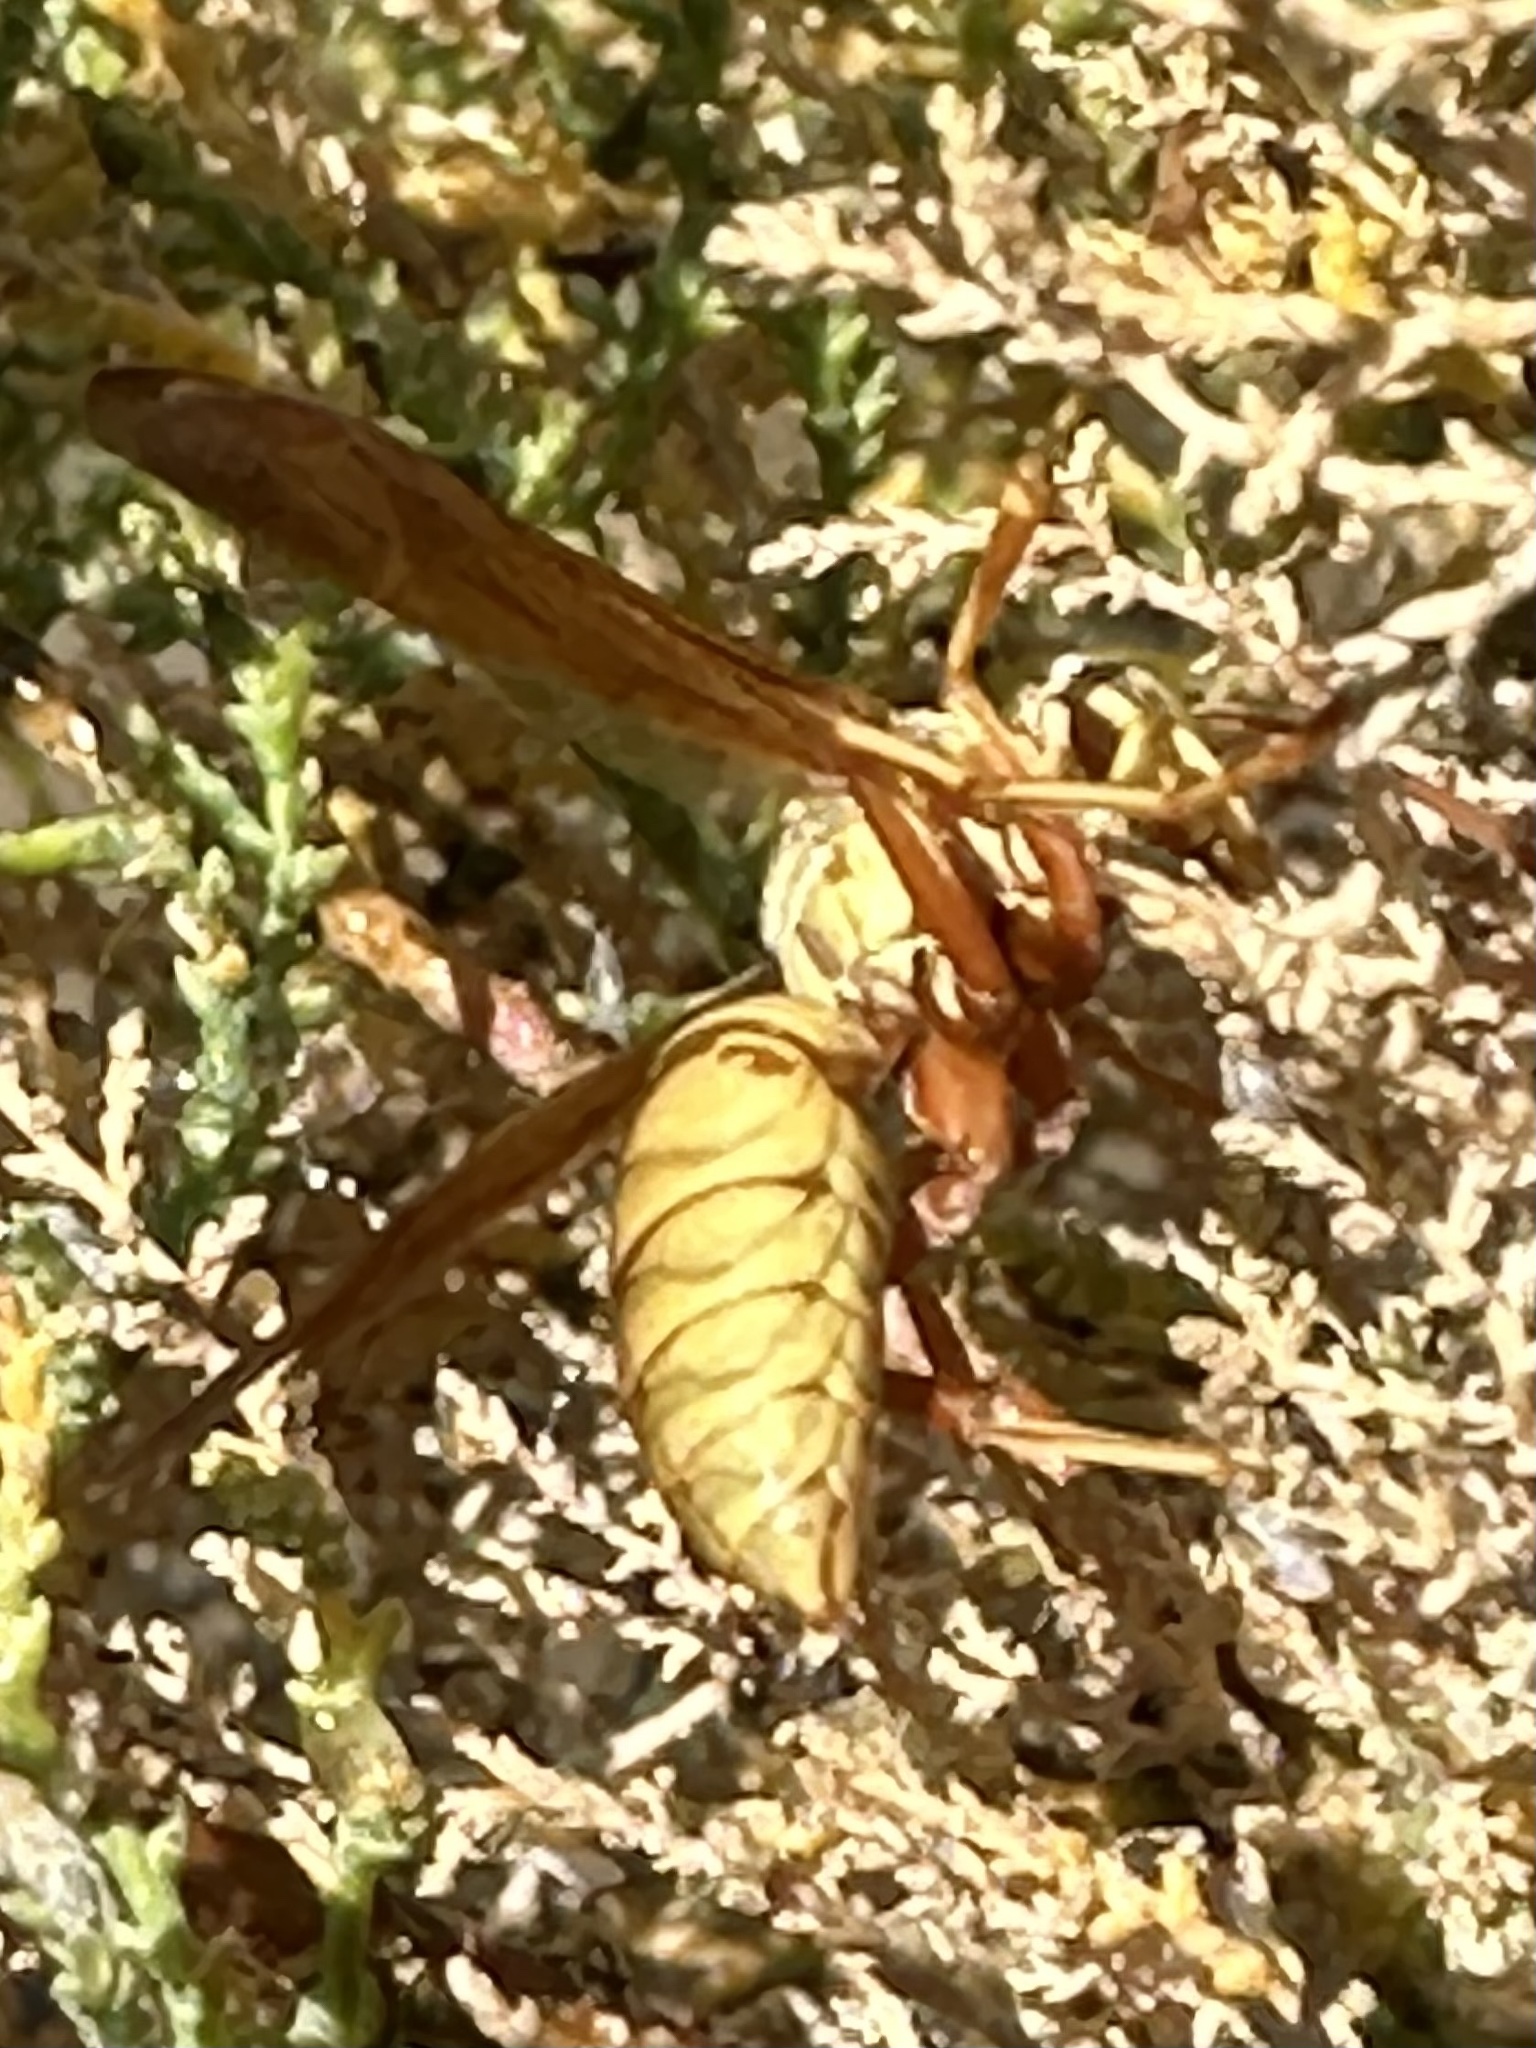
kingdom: Animalia
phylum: Arthropoda
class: Insecta
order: Hymenoptera
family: Eumenidae
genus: Polistes
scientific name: Polistes aurifer
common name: Paper wasp
